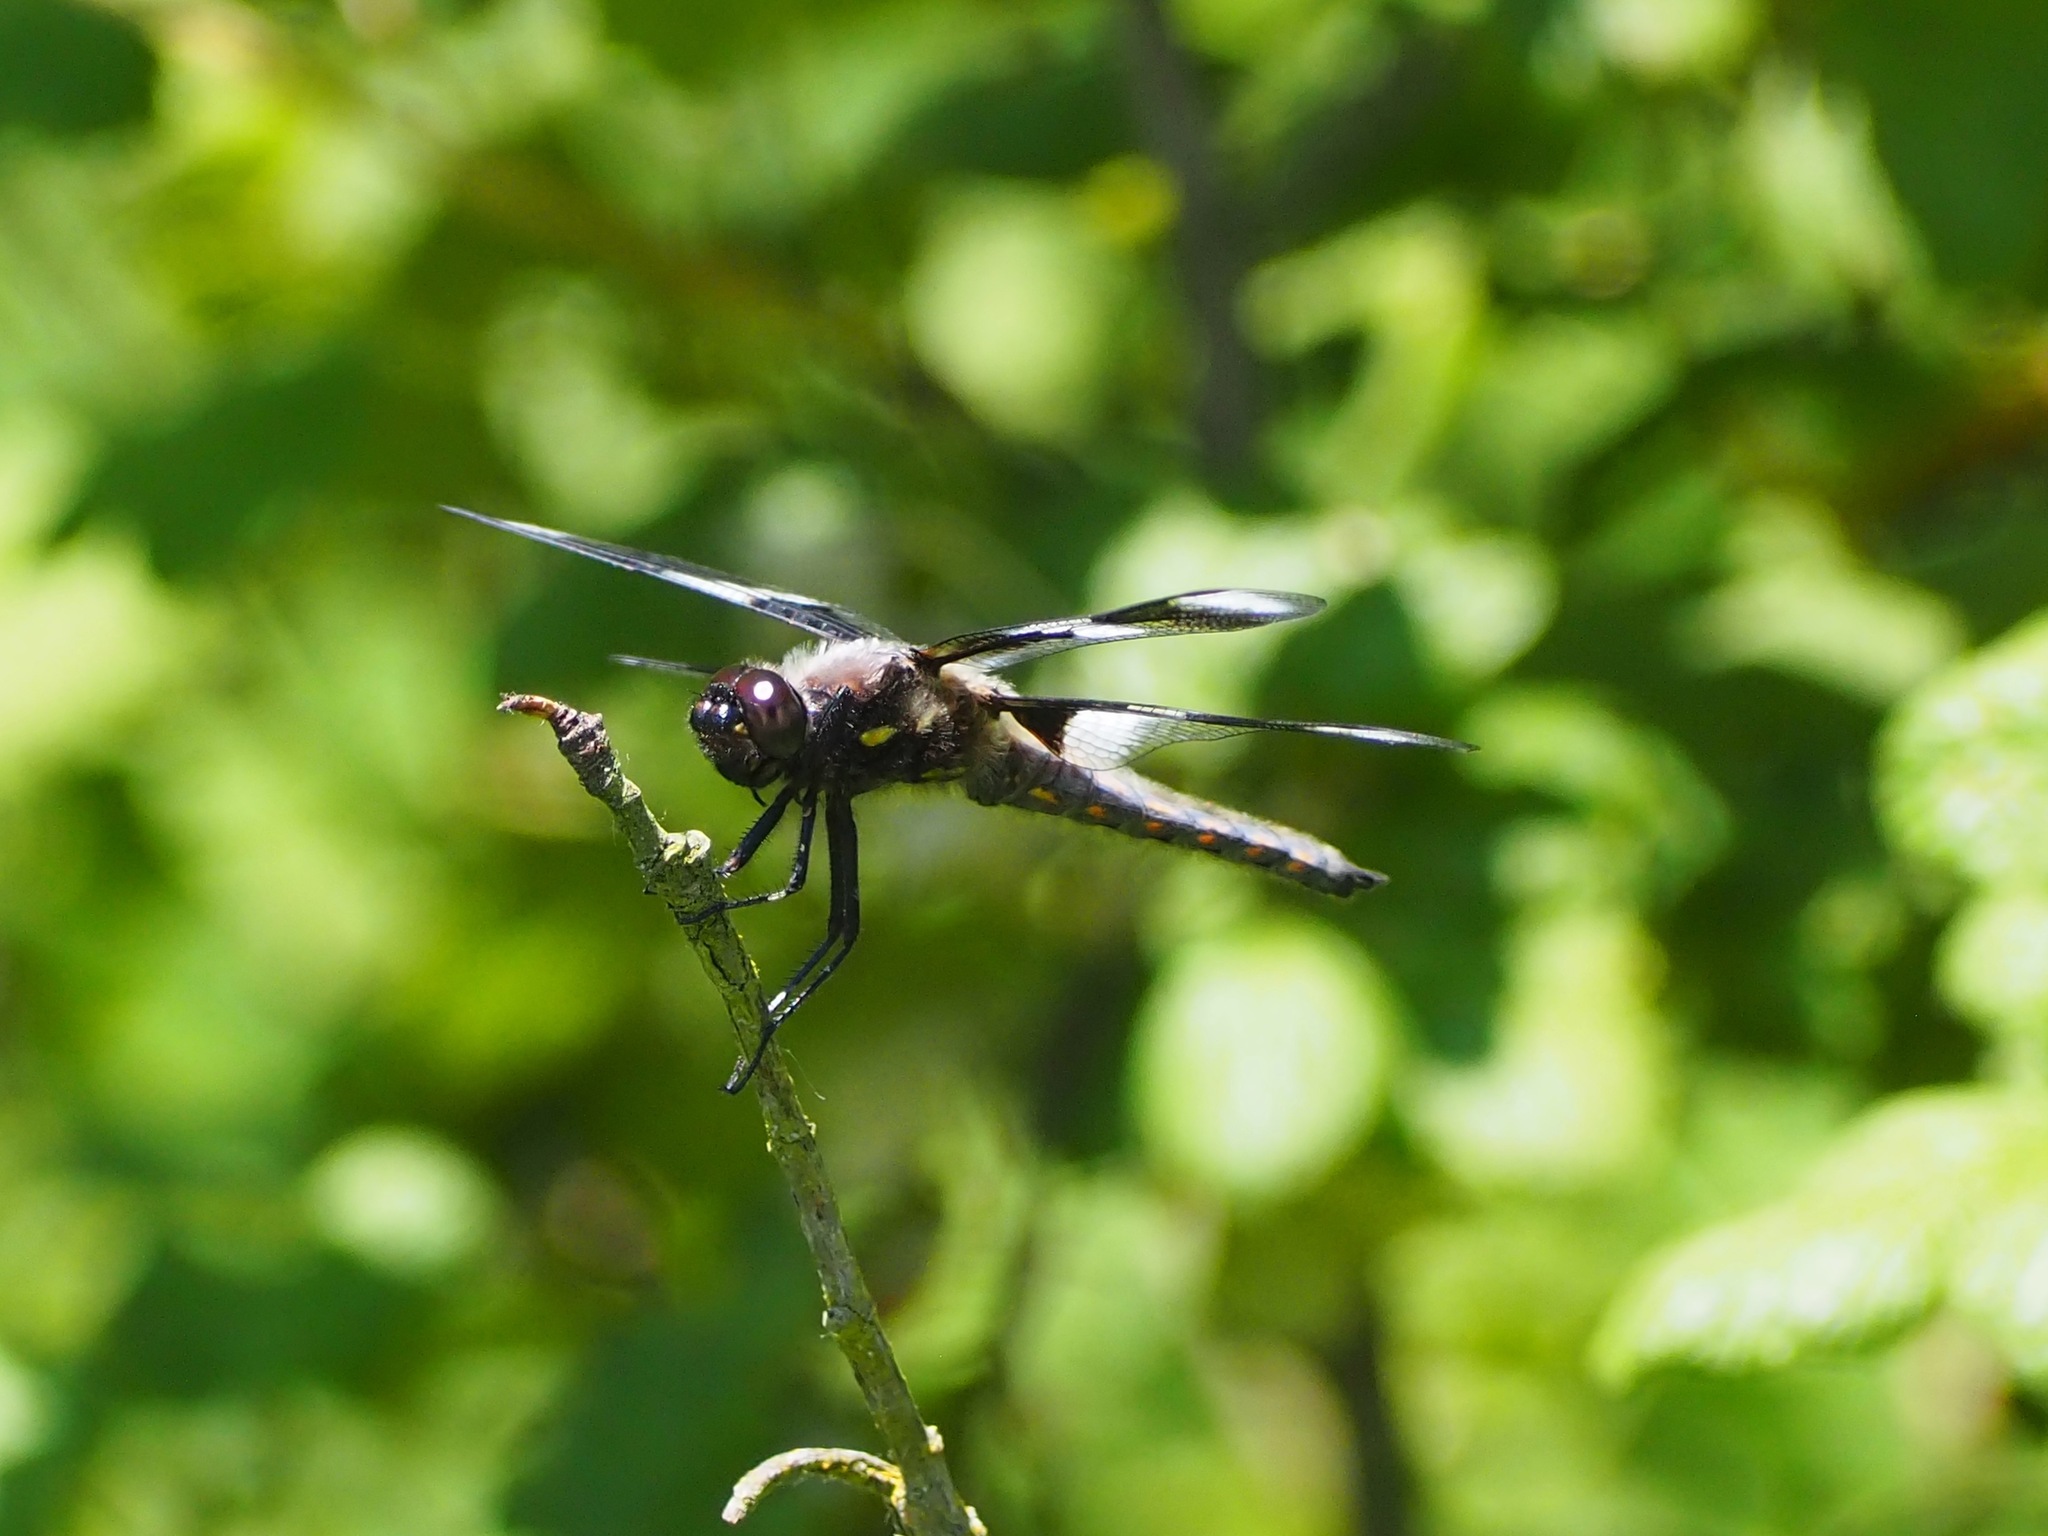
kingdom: Animalia
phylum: Arthropoda
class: Insecta
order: Odonata
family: Libellulidae
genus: Libellula
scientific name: Libellula forensis
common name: Eight-spotted skimmer
